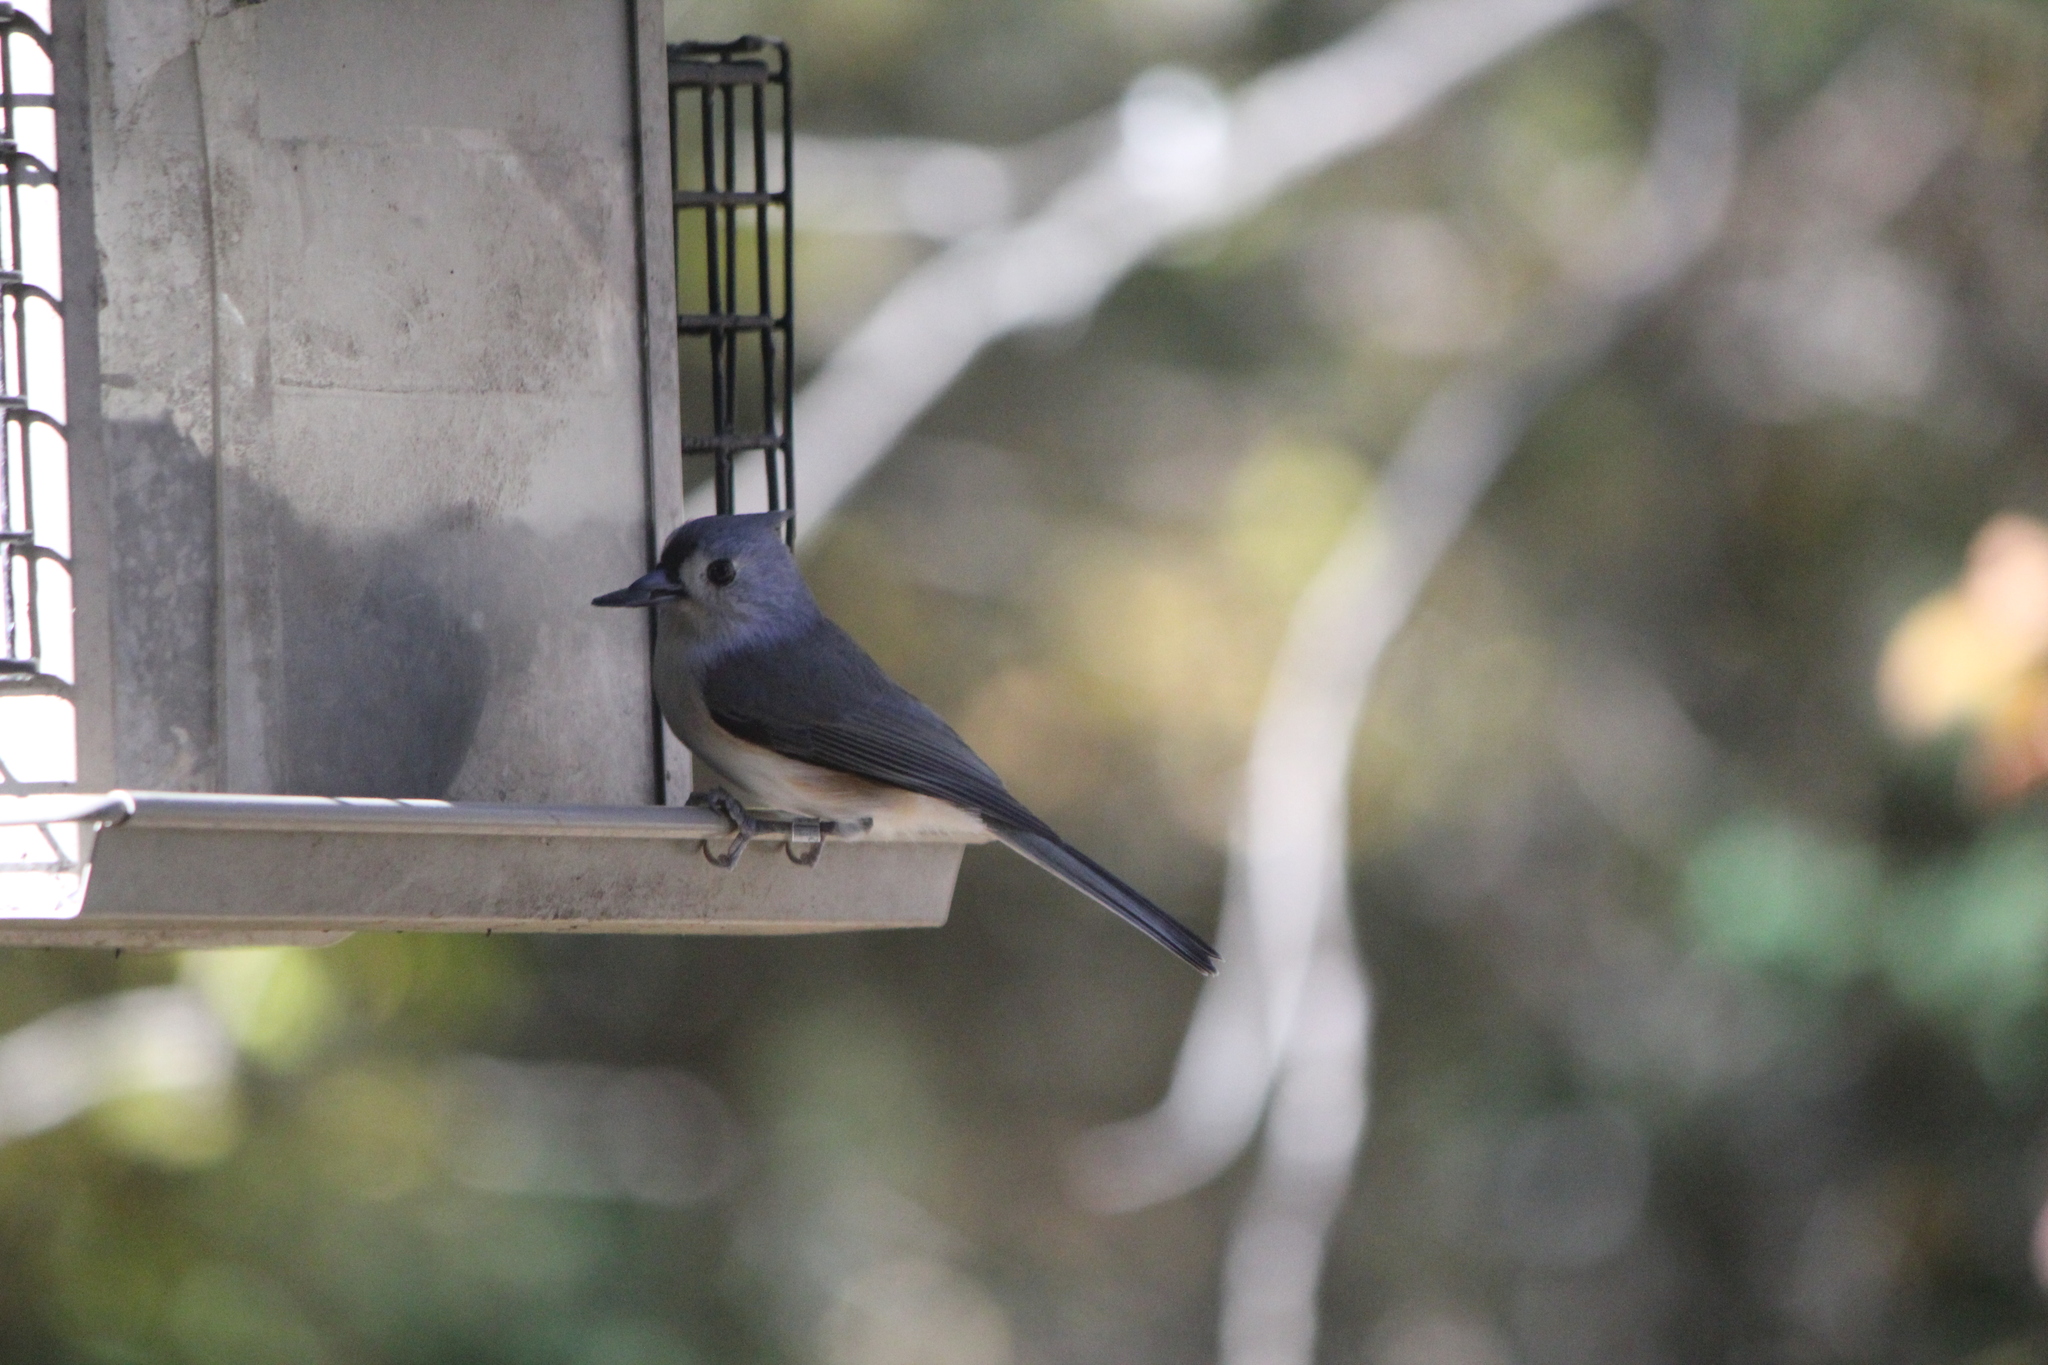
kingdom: Animalia
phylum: Chordata
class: Aves
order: Passeriformes
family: Paridae
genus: Baeolophus
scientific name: Baeolophus bicolor
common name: Tufted titmouse
